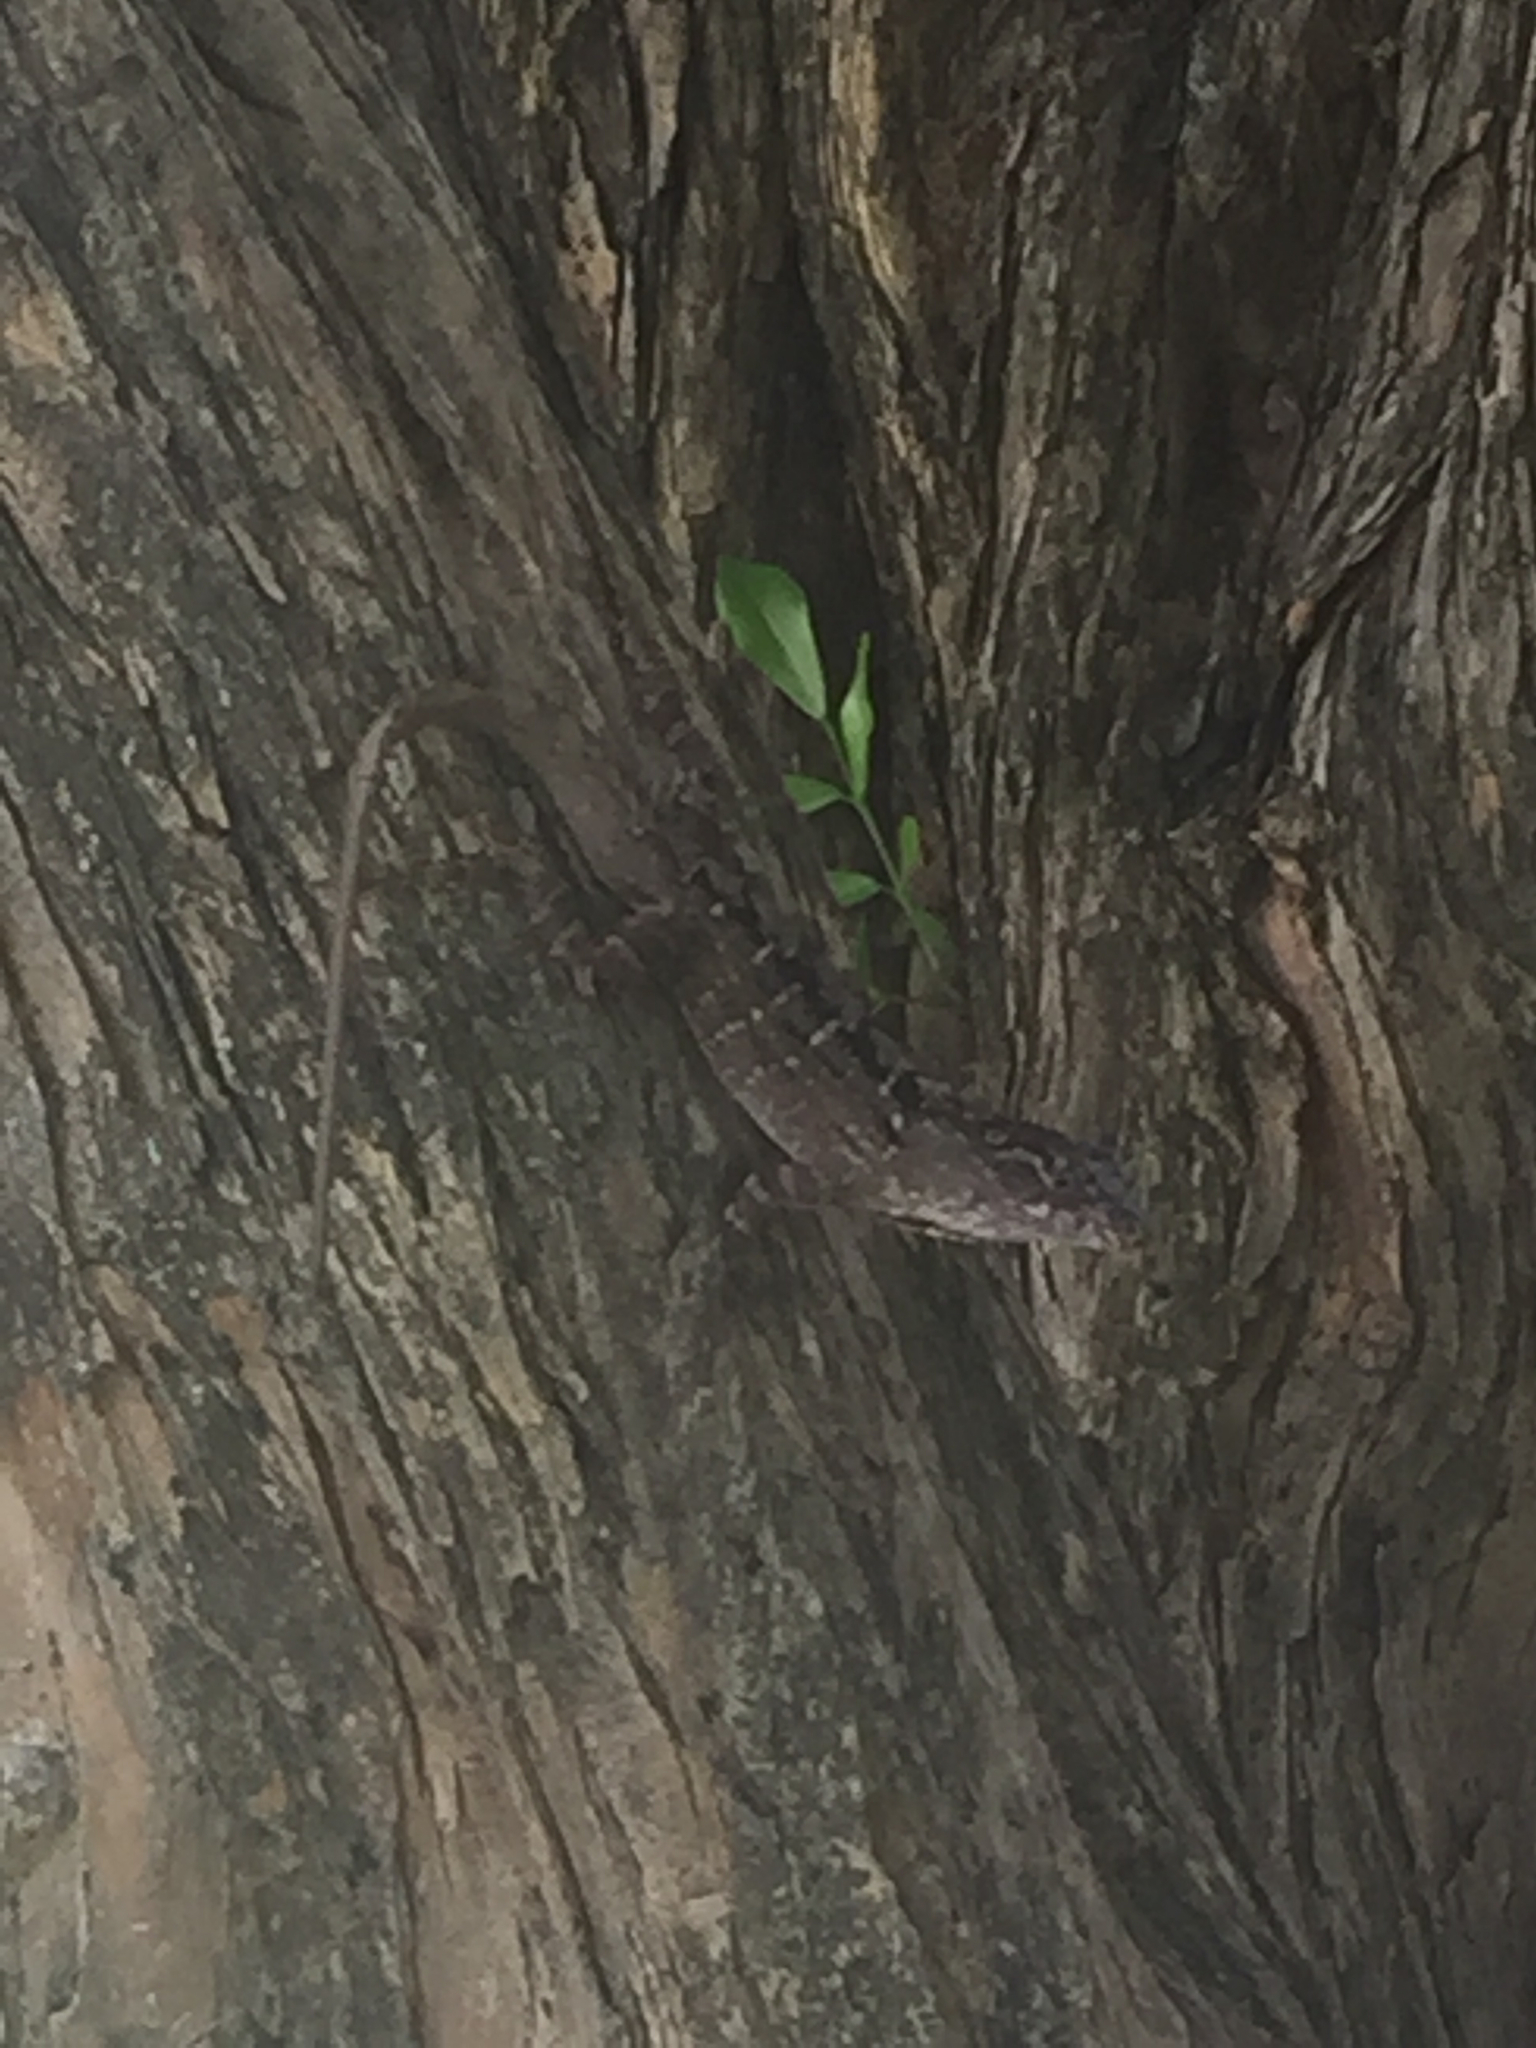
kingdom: Animalia
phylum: Chordata
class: Squamata
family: Dactyloidae
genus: Anolis
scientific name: Anolis sagrei
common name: Brown anole
